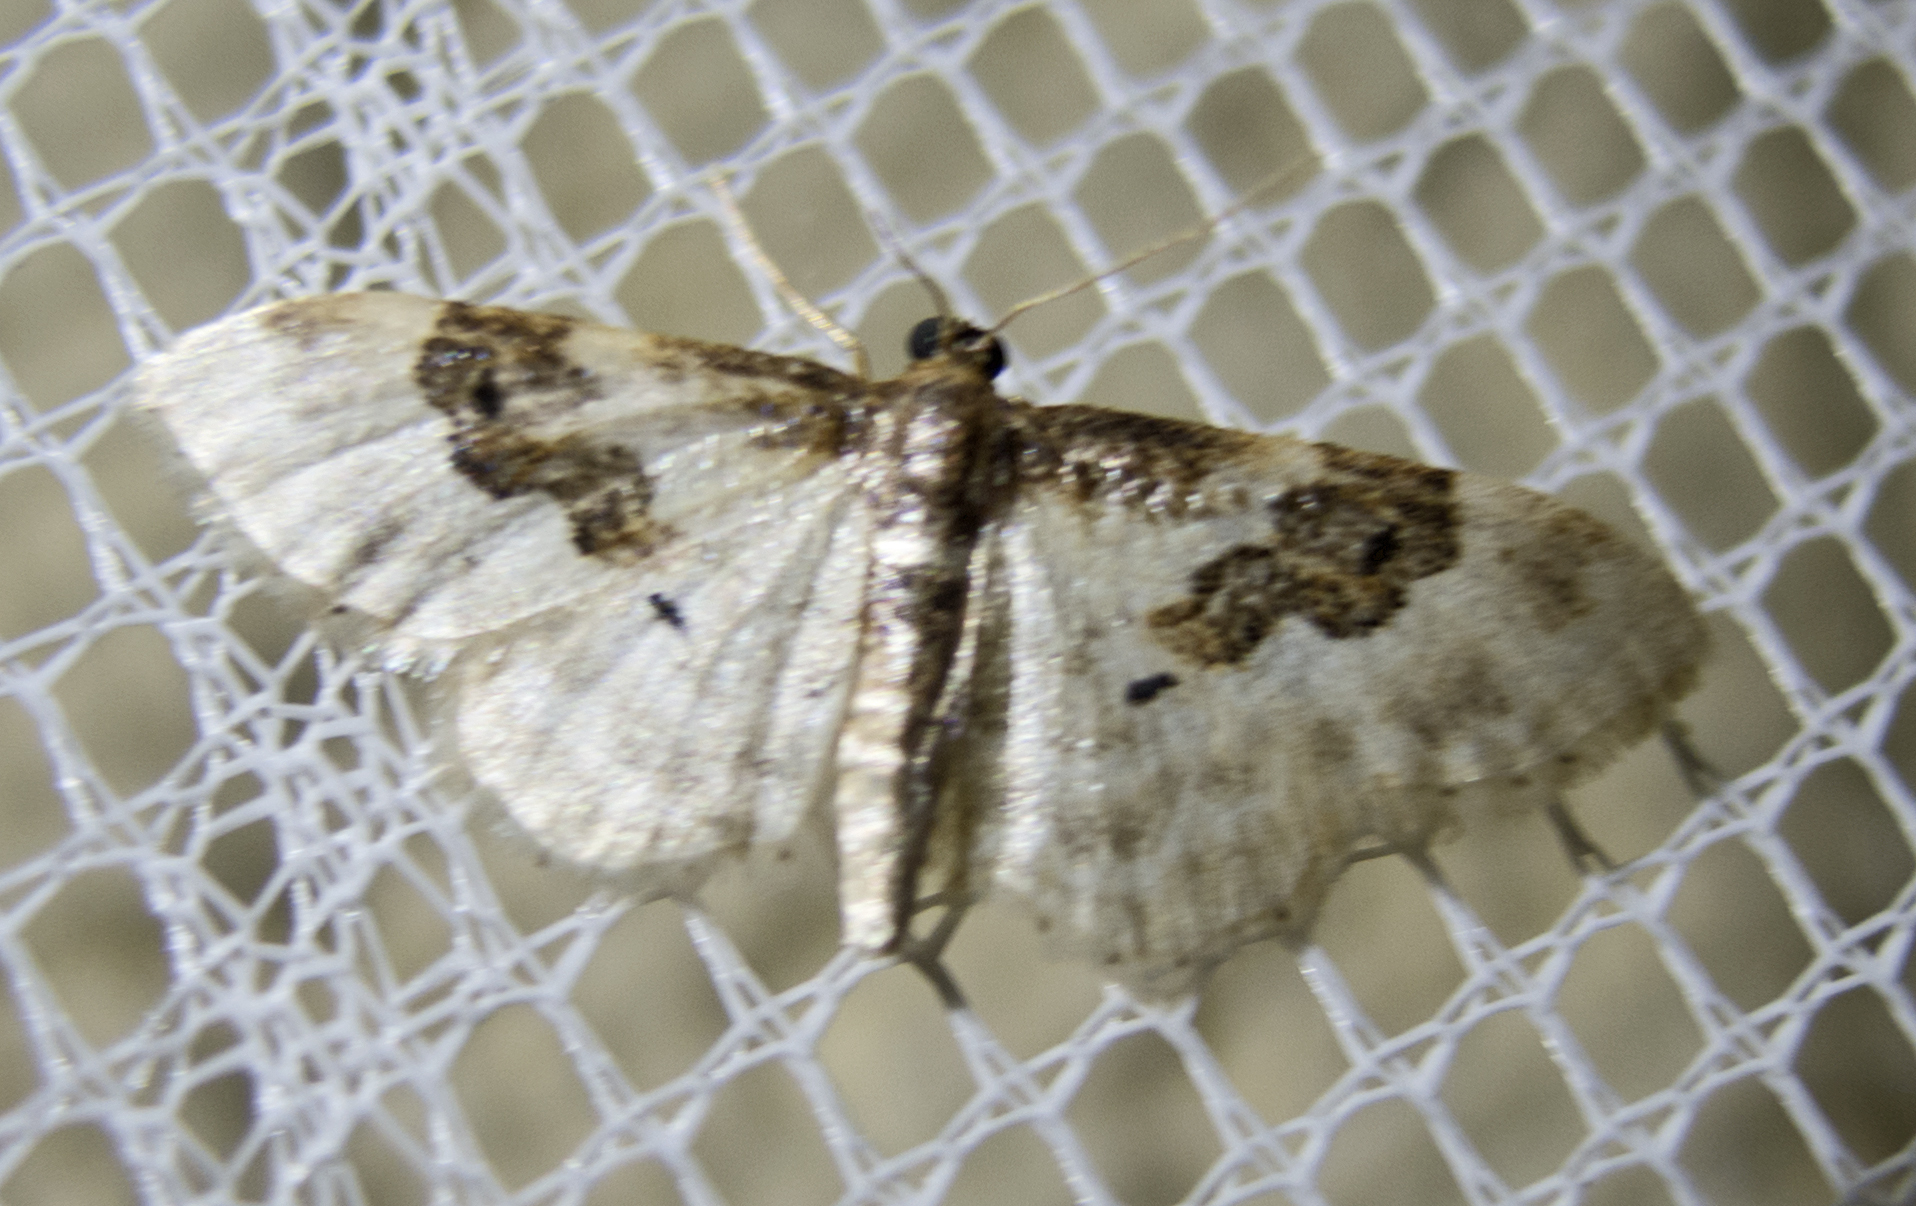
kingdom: Animalia
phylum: Arthropoda
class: Insecta
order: Lepidoptera
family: Geometridae
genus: Idaea
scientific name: Idaea rusticata
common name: Least carpet
